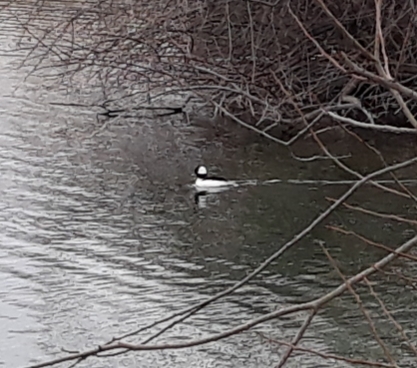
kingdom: Animalia
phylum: Chordata
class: Aves
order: Anseriformes
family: Anatidae
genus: Bucephala
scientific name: Bucephala albeola
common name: Bufflehead
